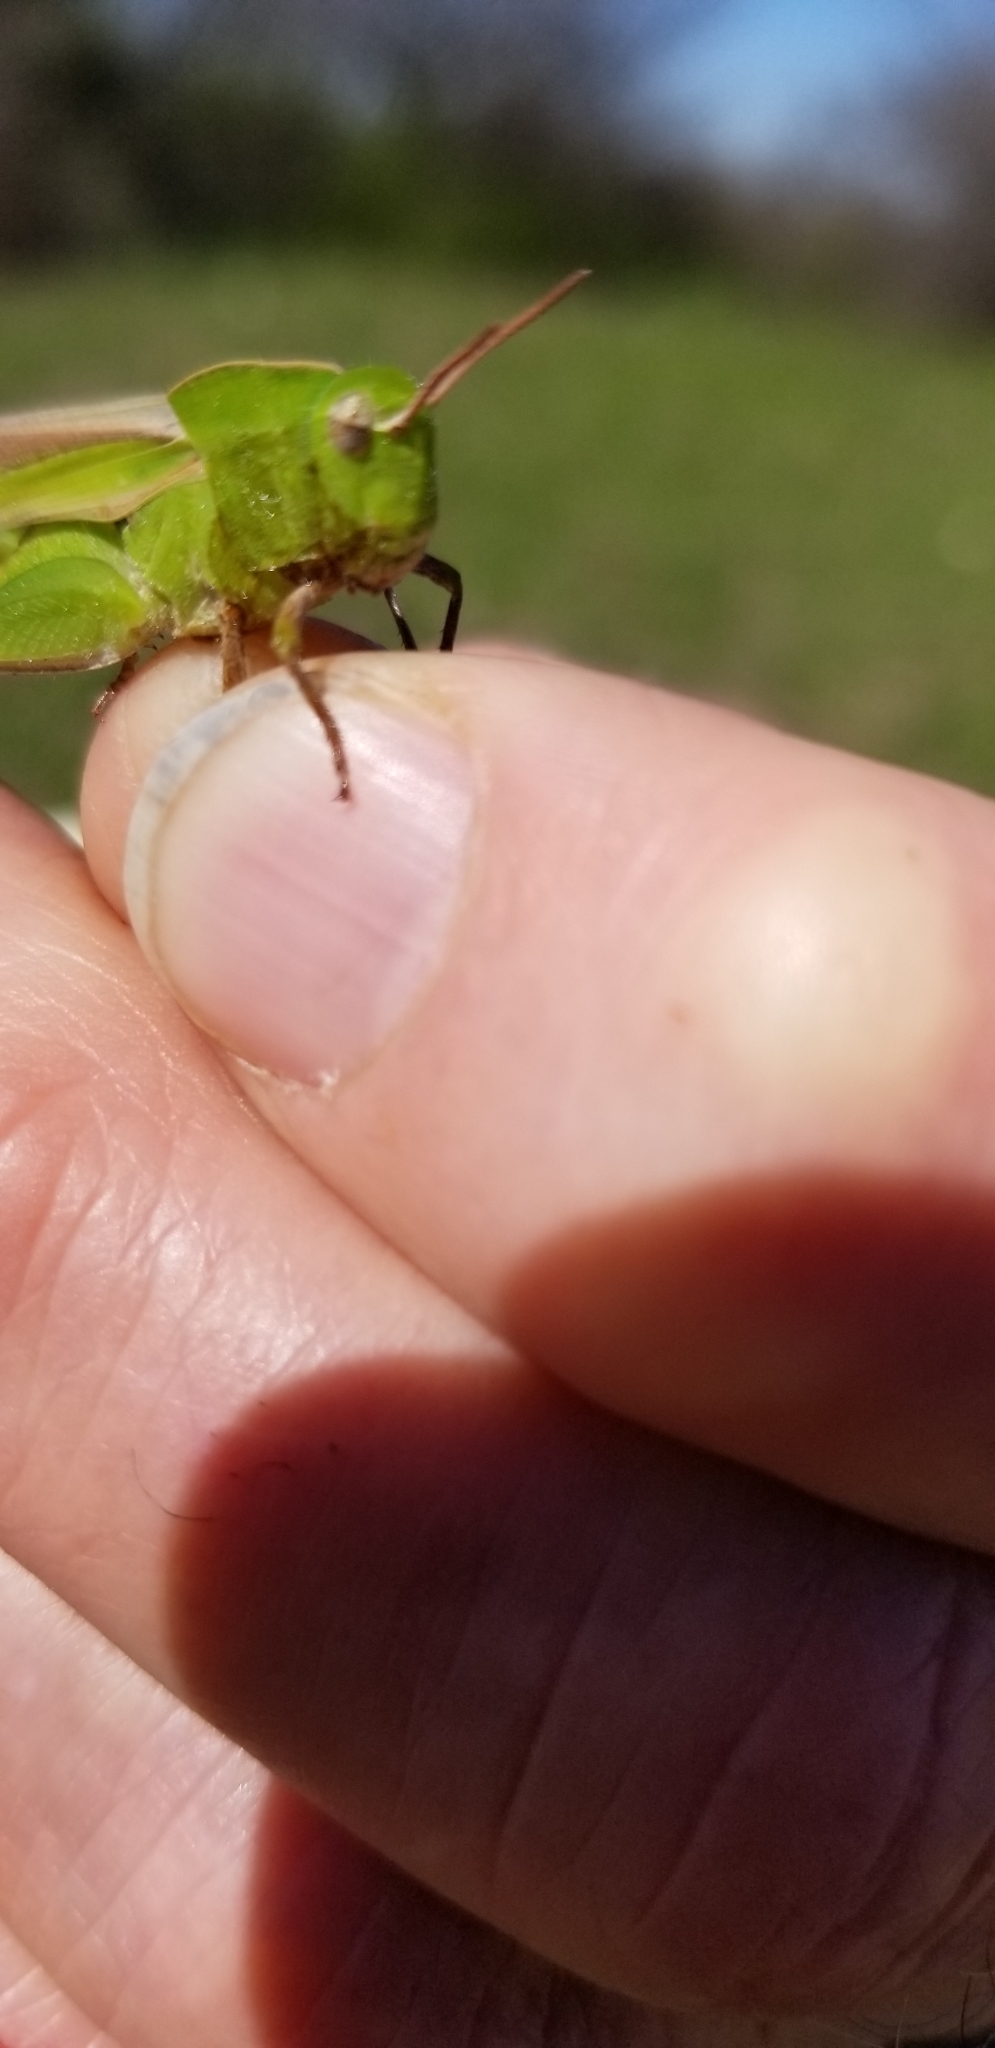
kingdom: Animalia
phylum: Arthropoda
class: Insecta
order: Orthoptera
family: Acrididae
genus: Chortophaga
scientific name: Chortophaga viridifasciata
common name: Green-striped grasshopper
